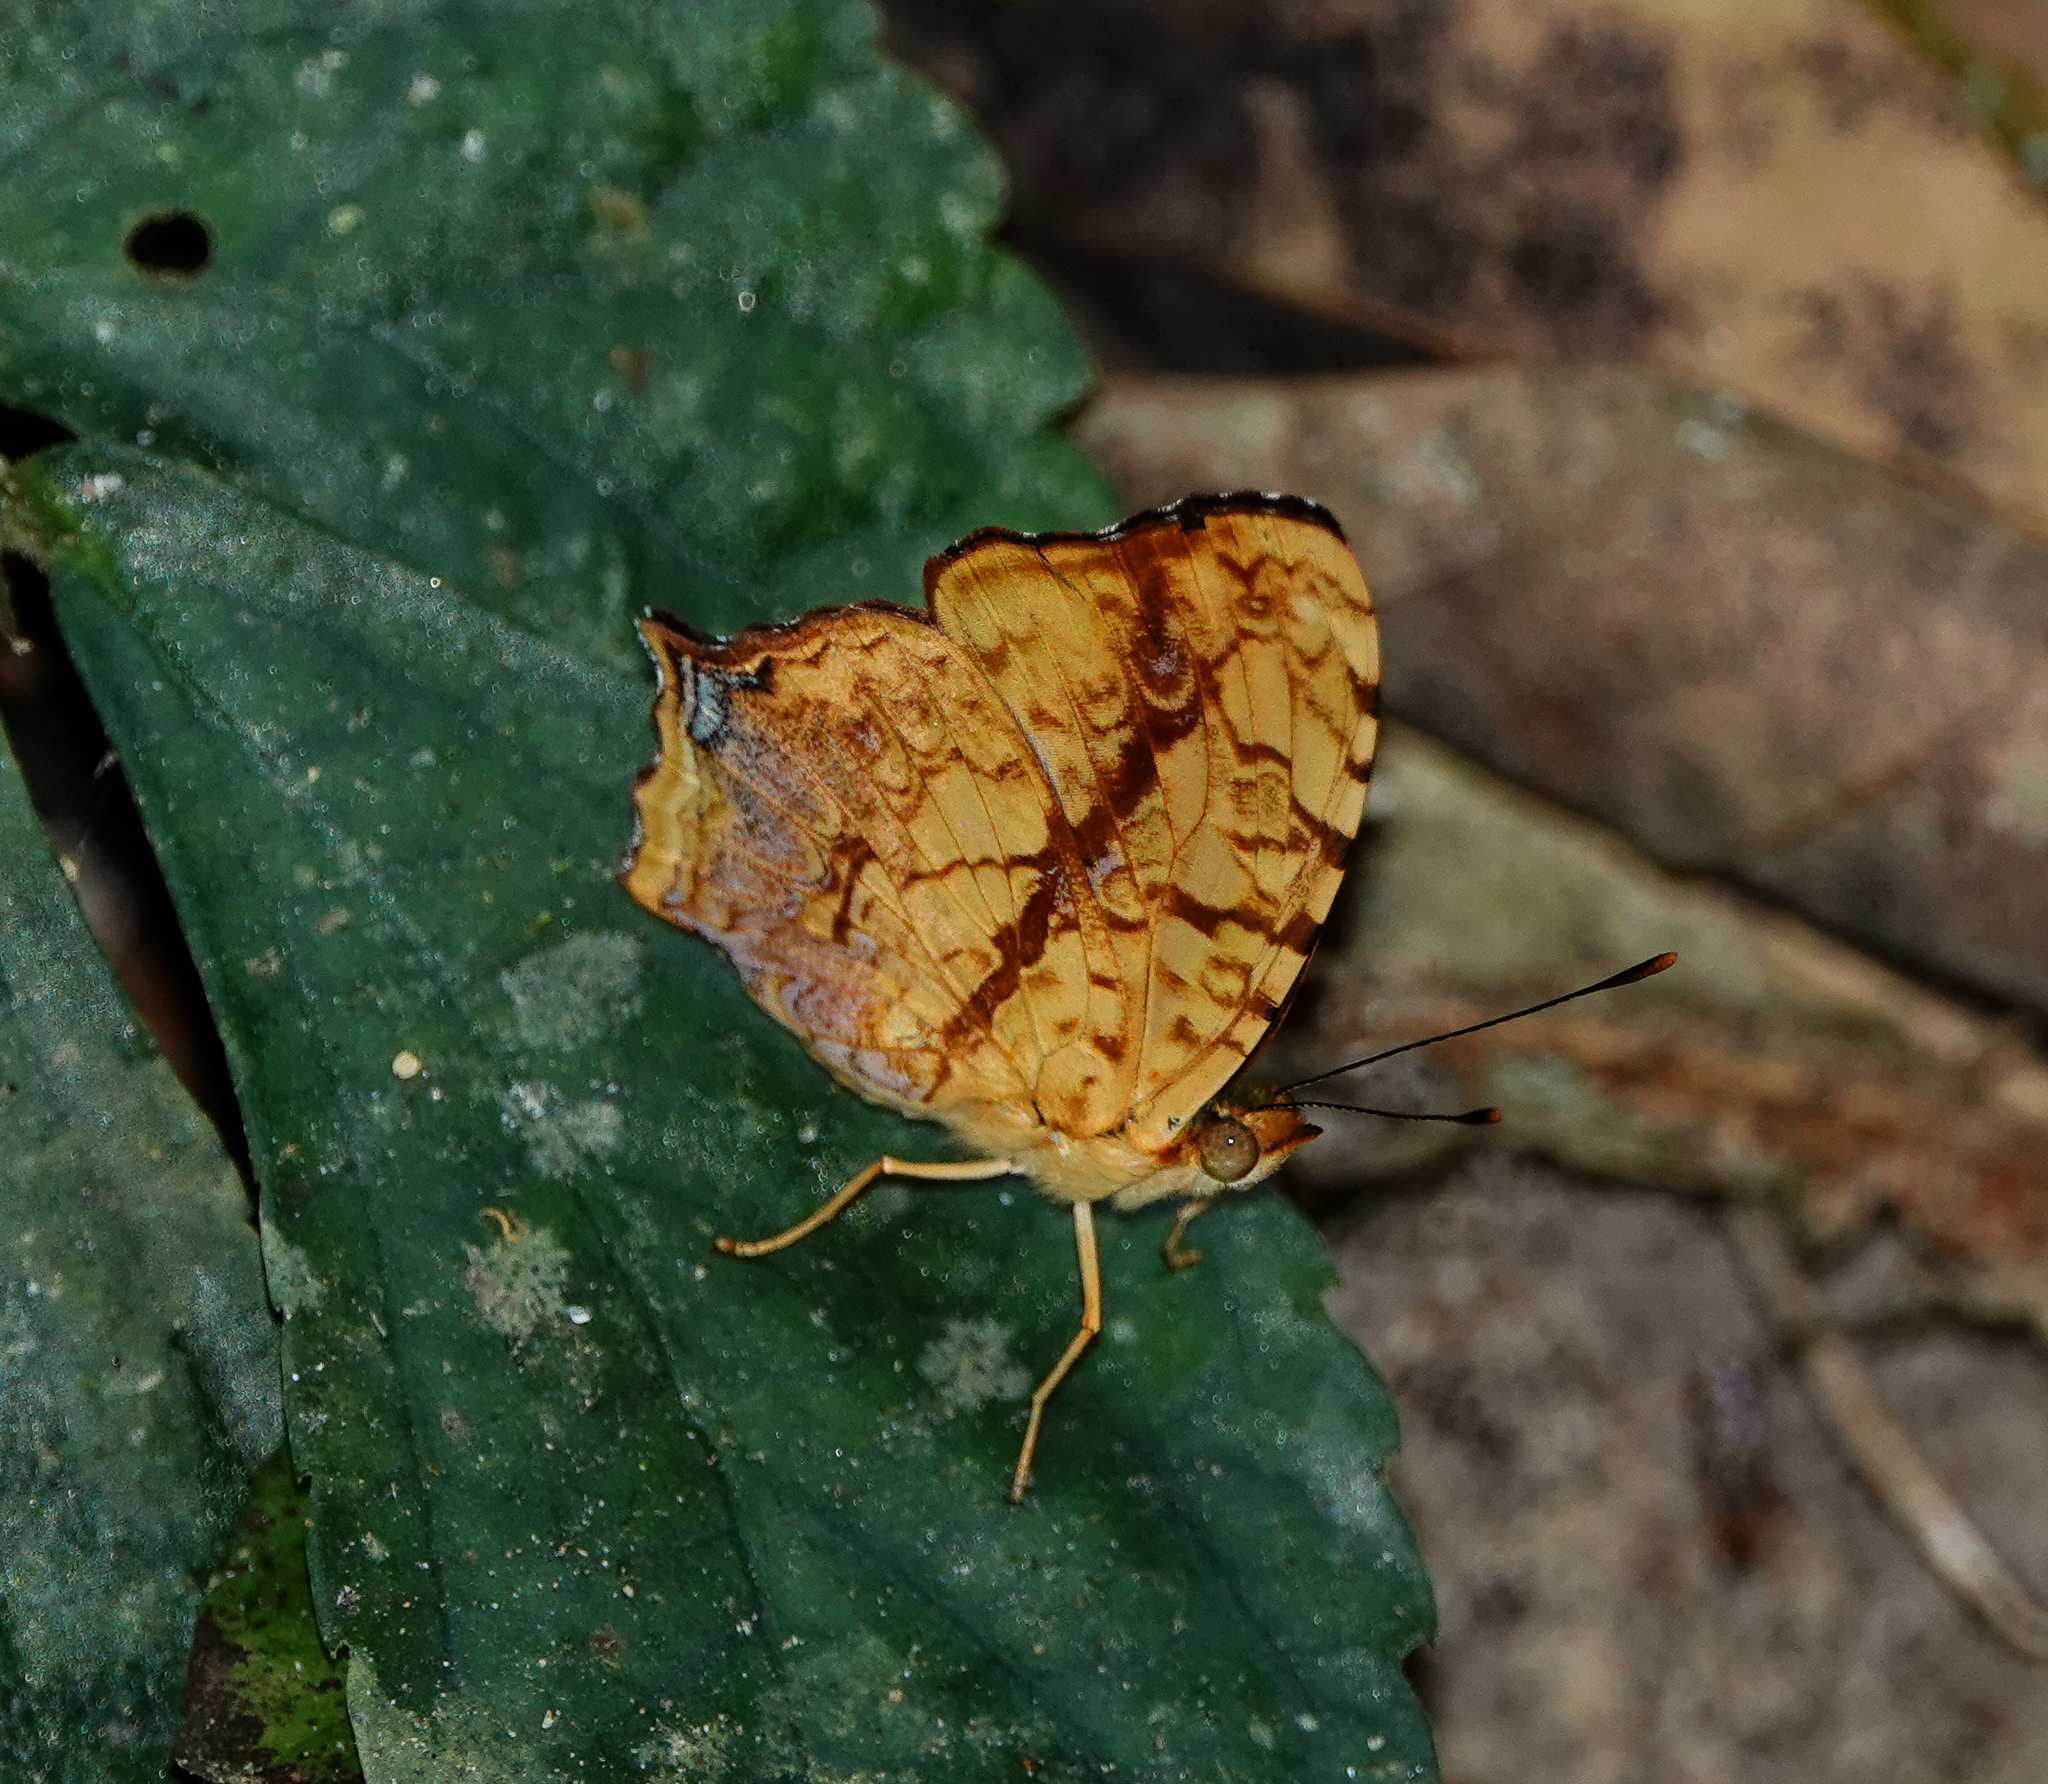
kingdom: Animalia
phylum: Arthropoda
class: Insecta
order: Lepidoptera
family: Nymphalidae
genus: Symbrenthia
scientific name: Symbrenthia hypselis
